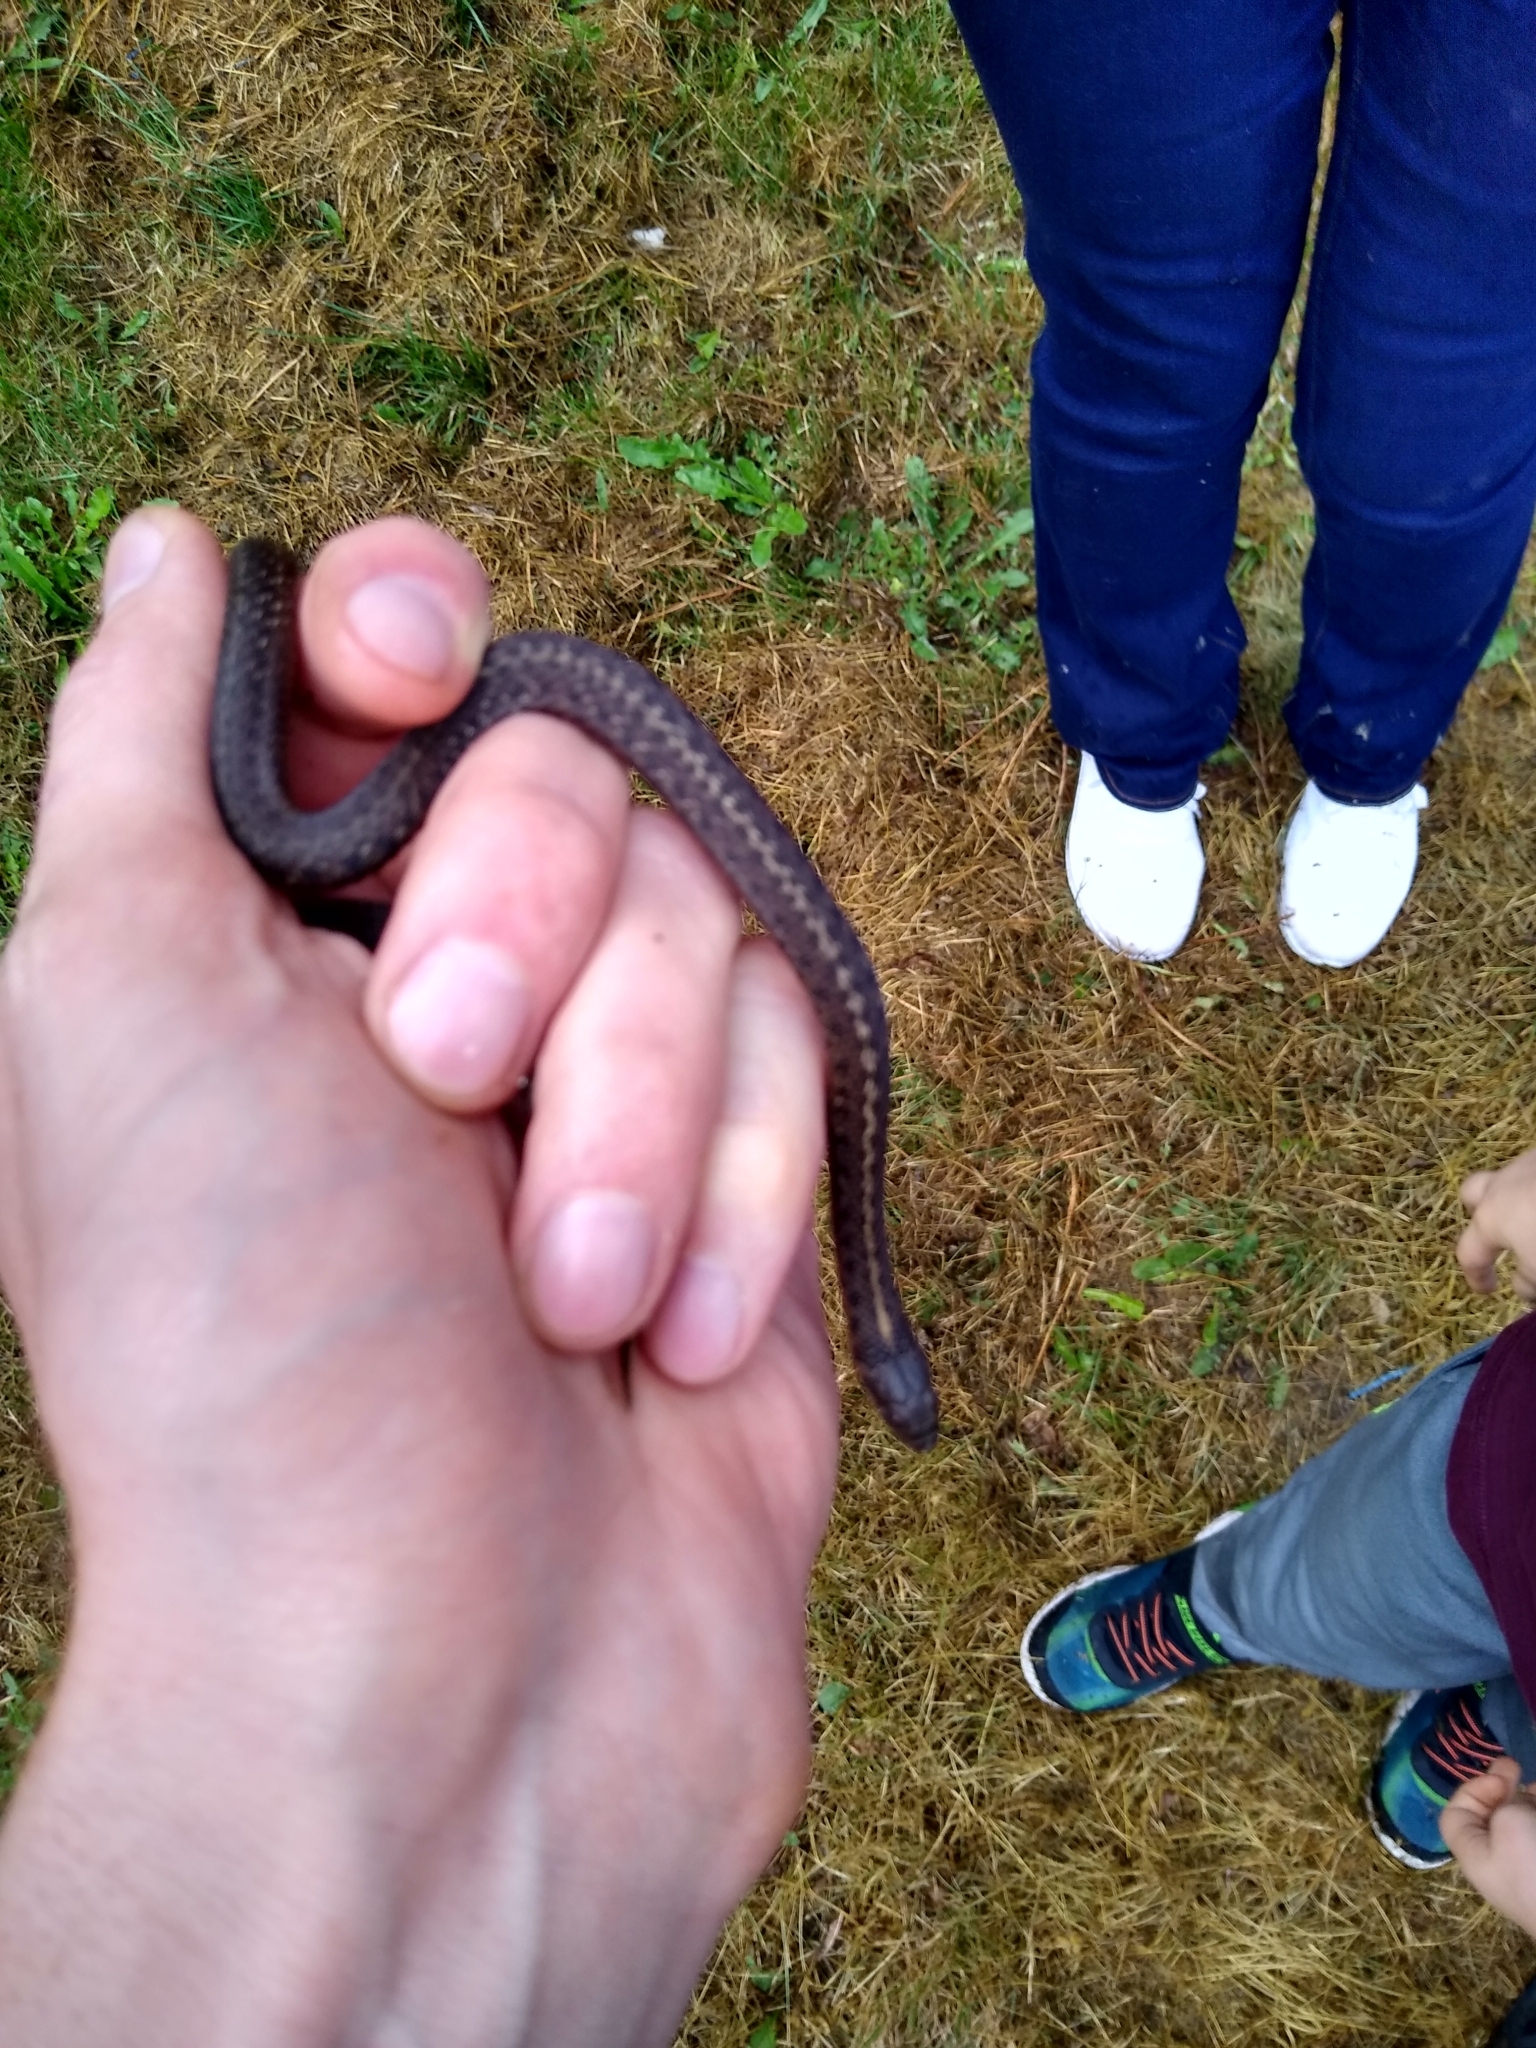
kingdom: Animalia
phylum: Chordata
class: Squamata
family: Colubridae
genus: Thamnophis
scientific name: Thamnophis elegans
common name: Western terrestrial garter snake
